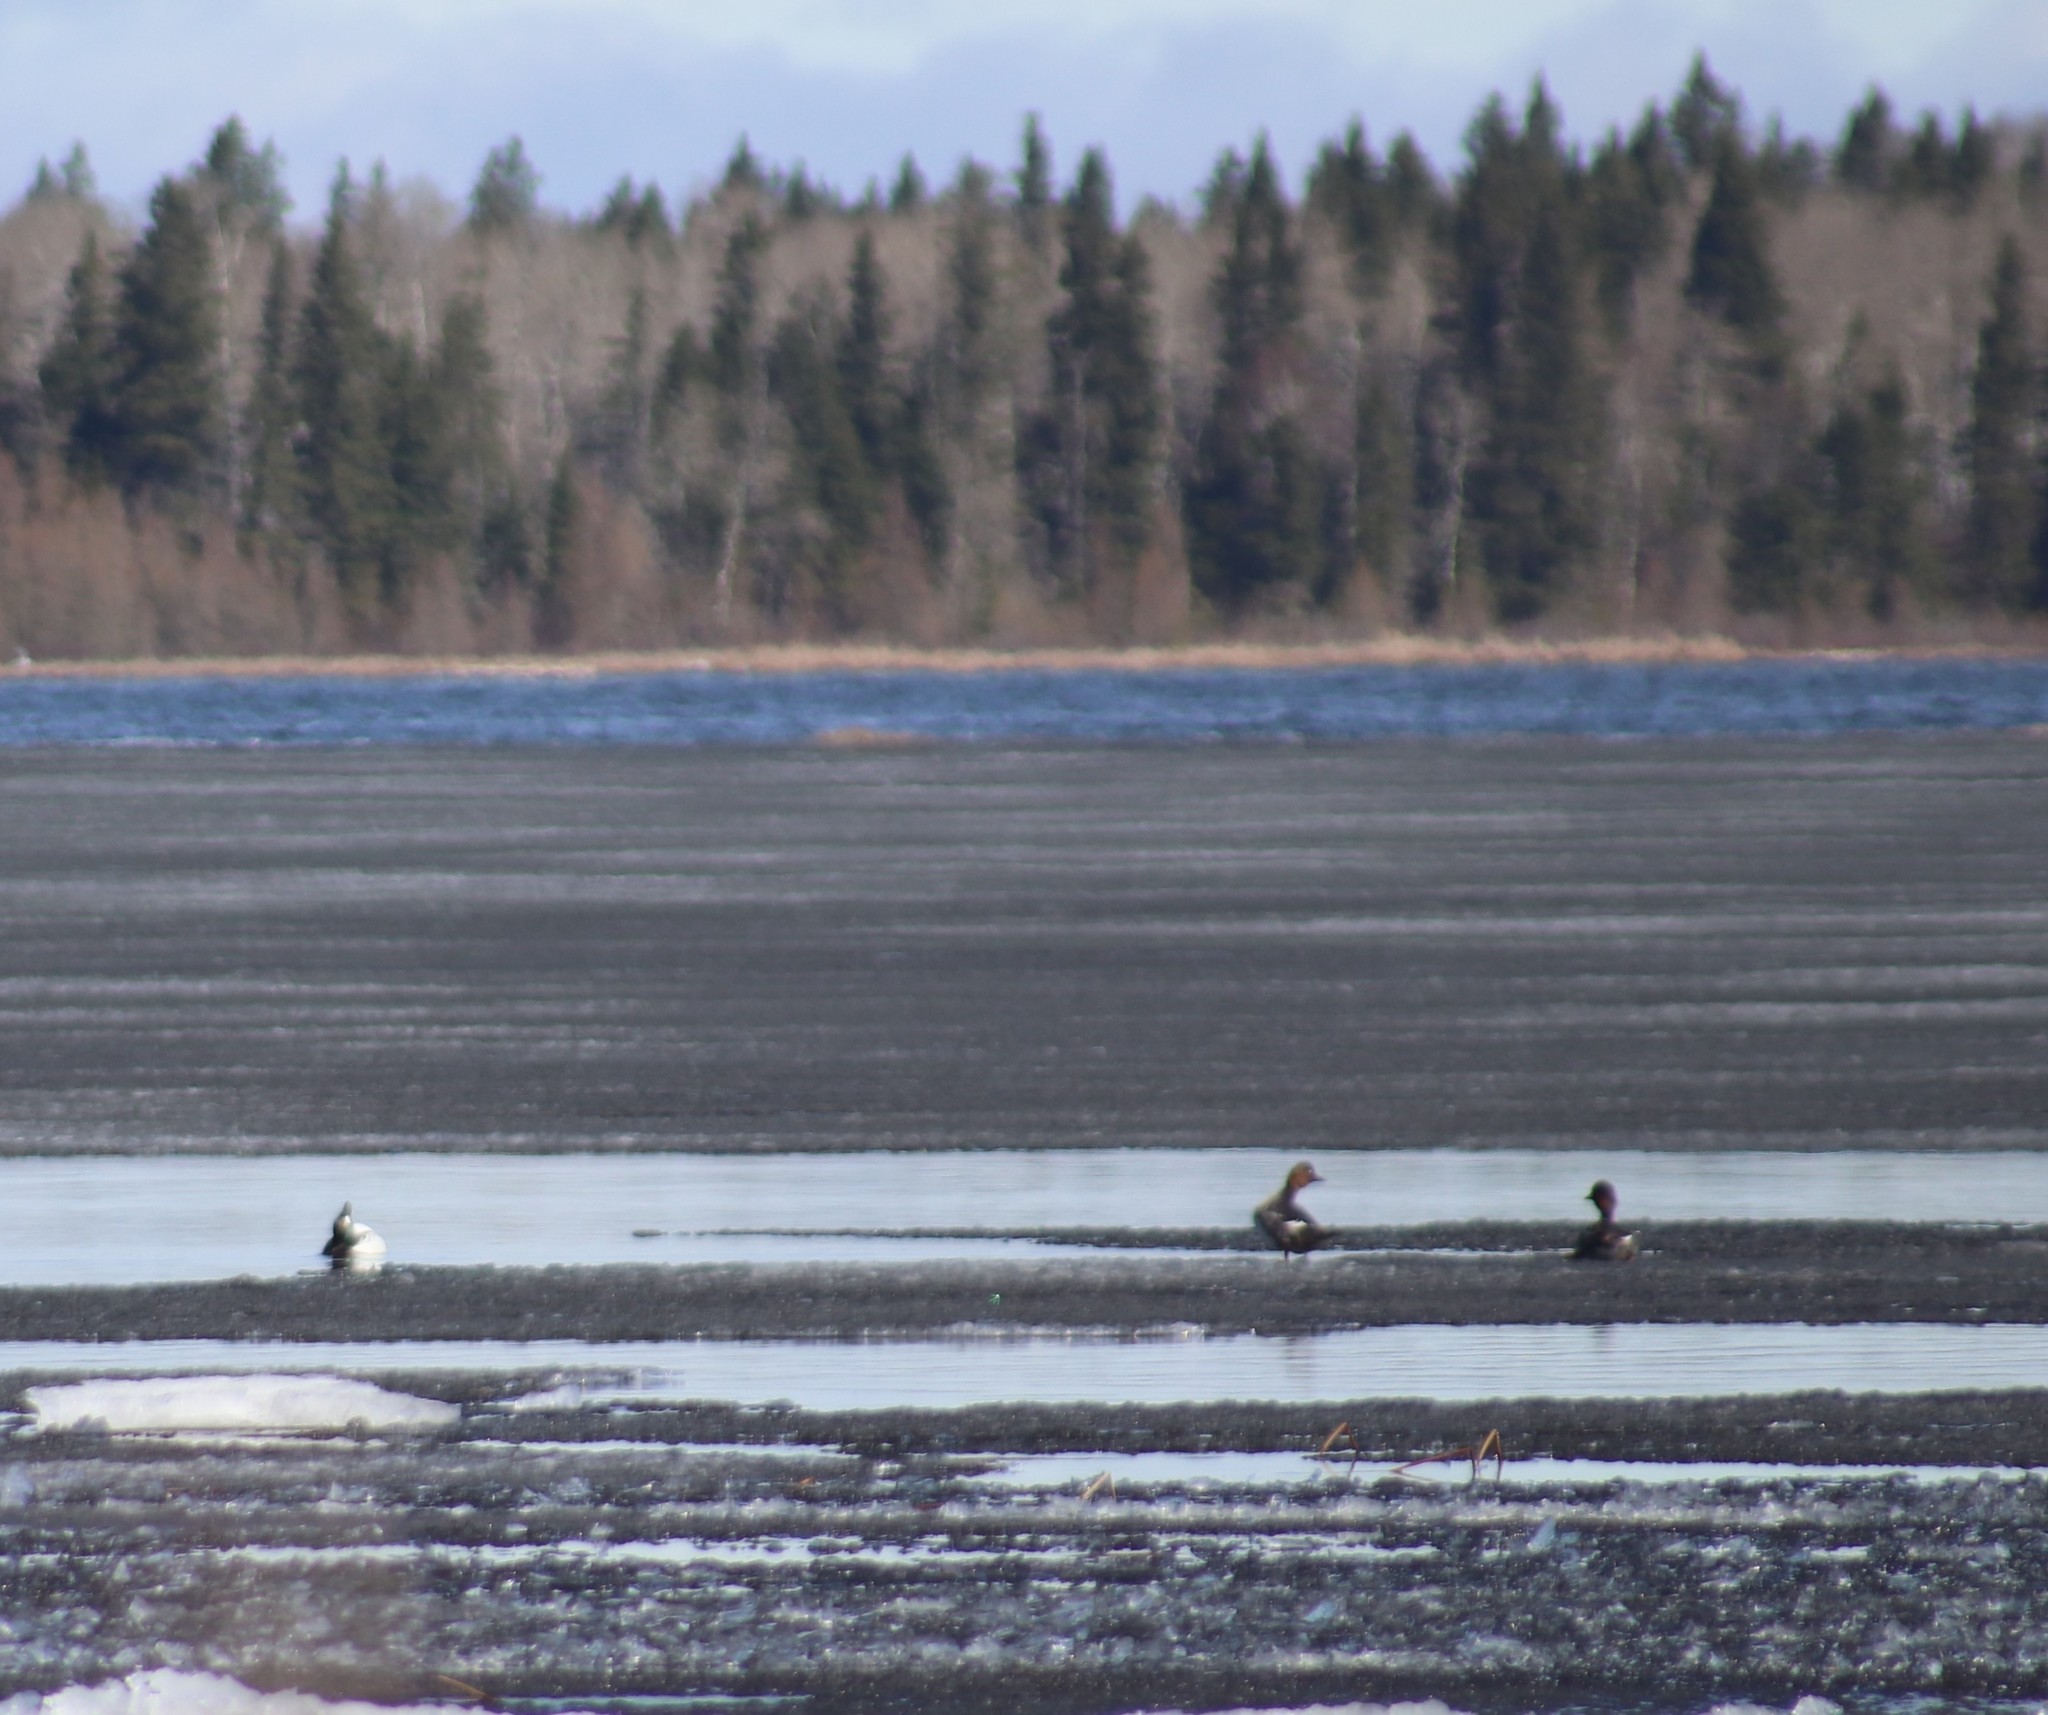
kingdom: Animalia
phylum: Chordata
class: Aves
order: Anseriformes
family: Anatidae
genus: Bucephala
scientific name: Bucephala clangula
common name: Common goldeneye
